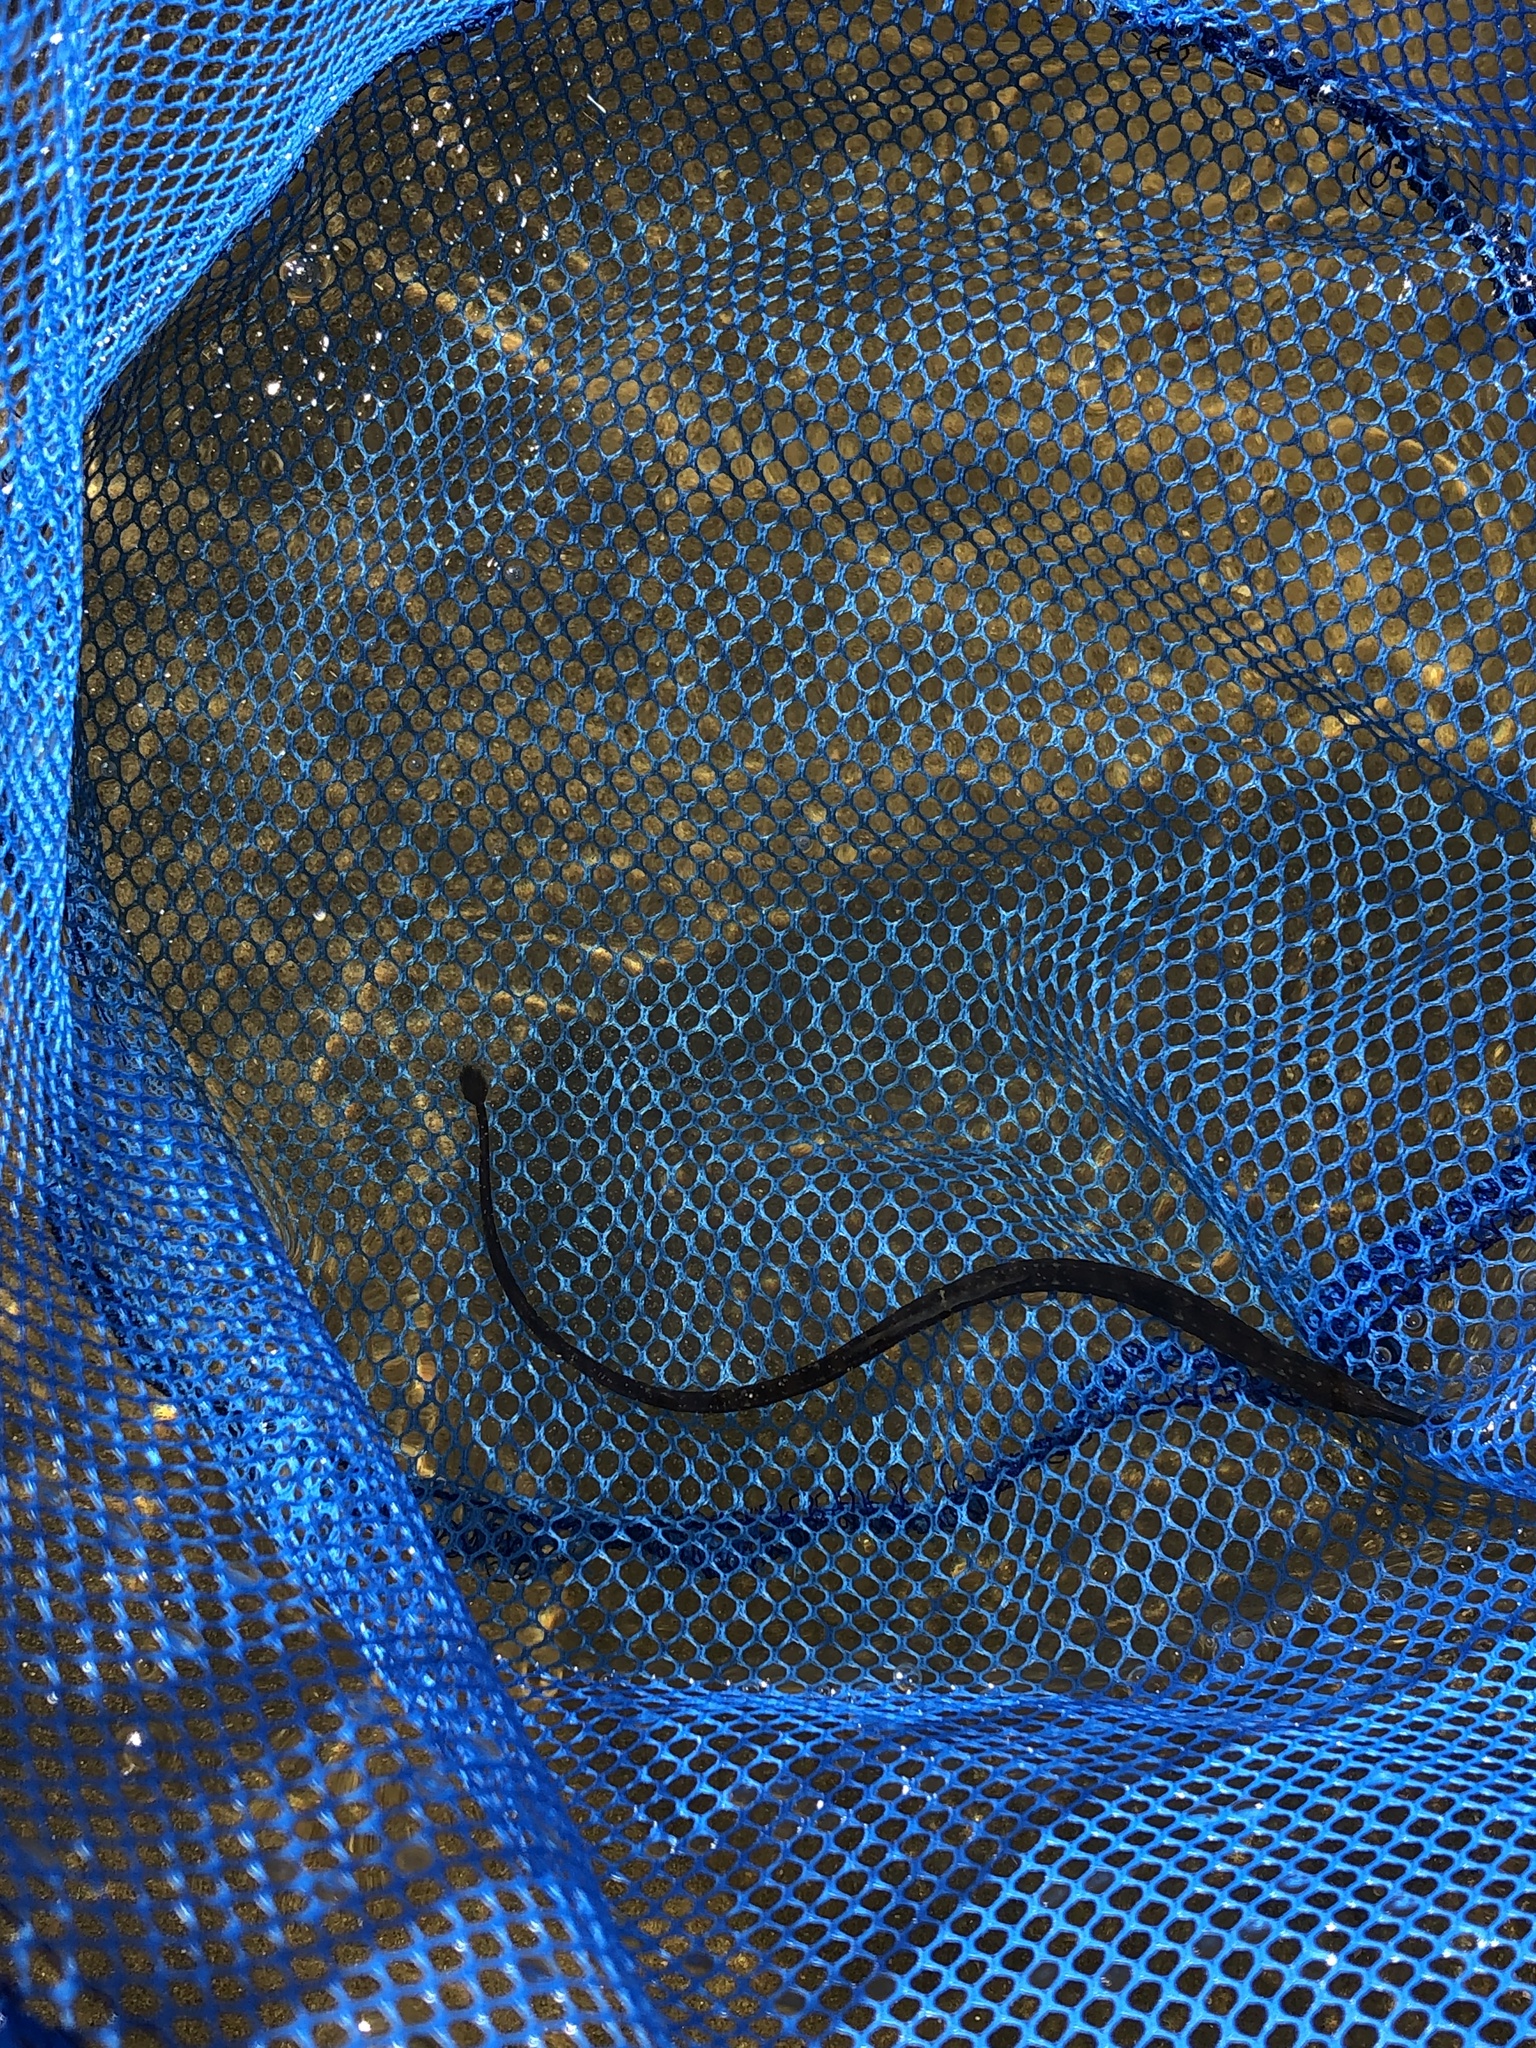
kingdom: Animalia
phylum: Chordata
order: Syngnathiformes
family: Syngnathidae
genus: Syngnathus
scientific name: Syngnathus fuscus
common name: Northern pipefish
